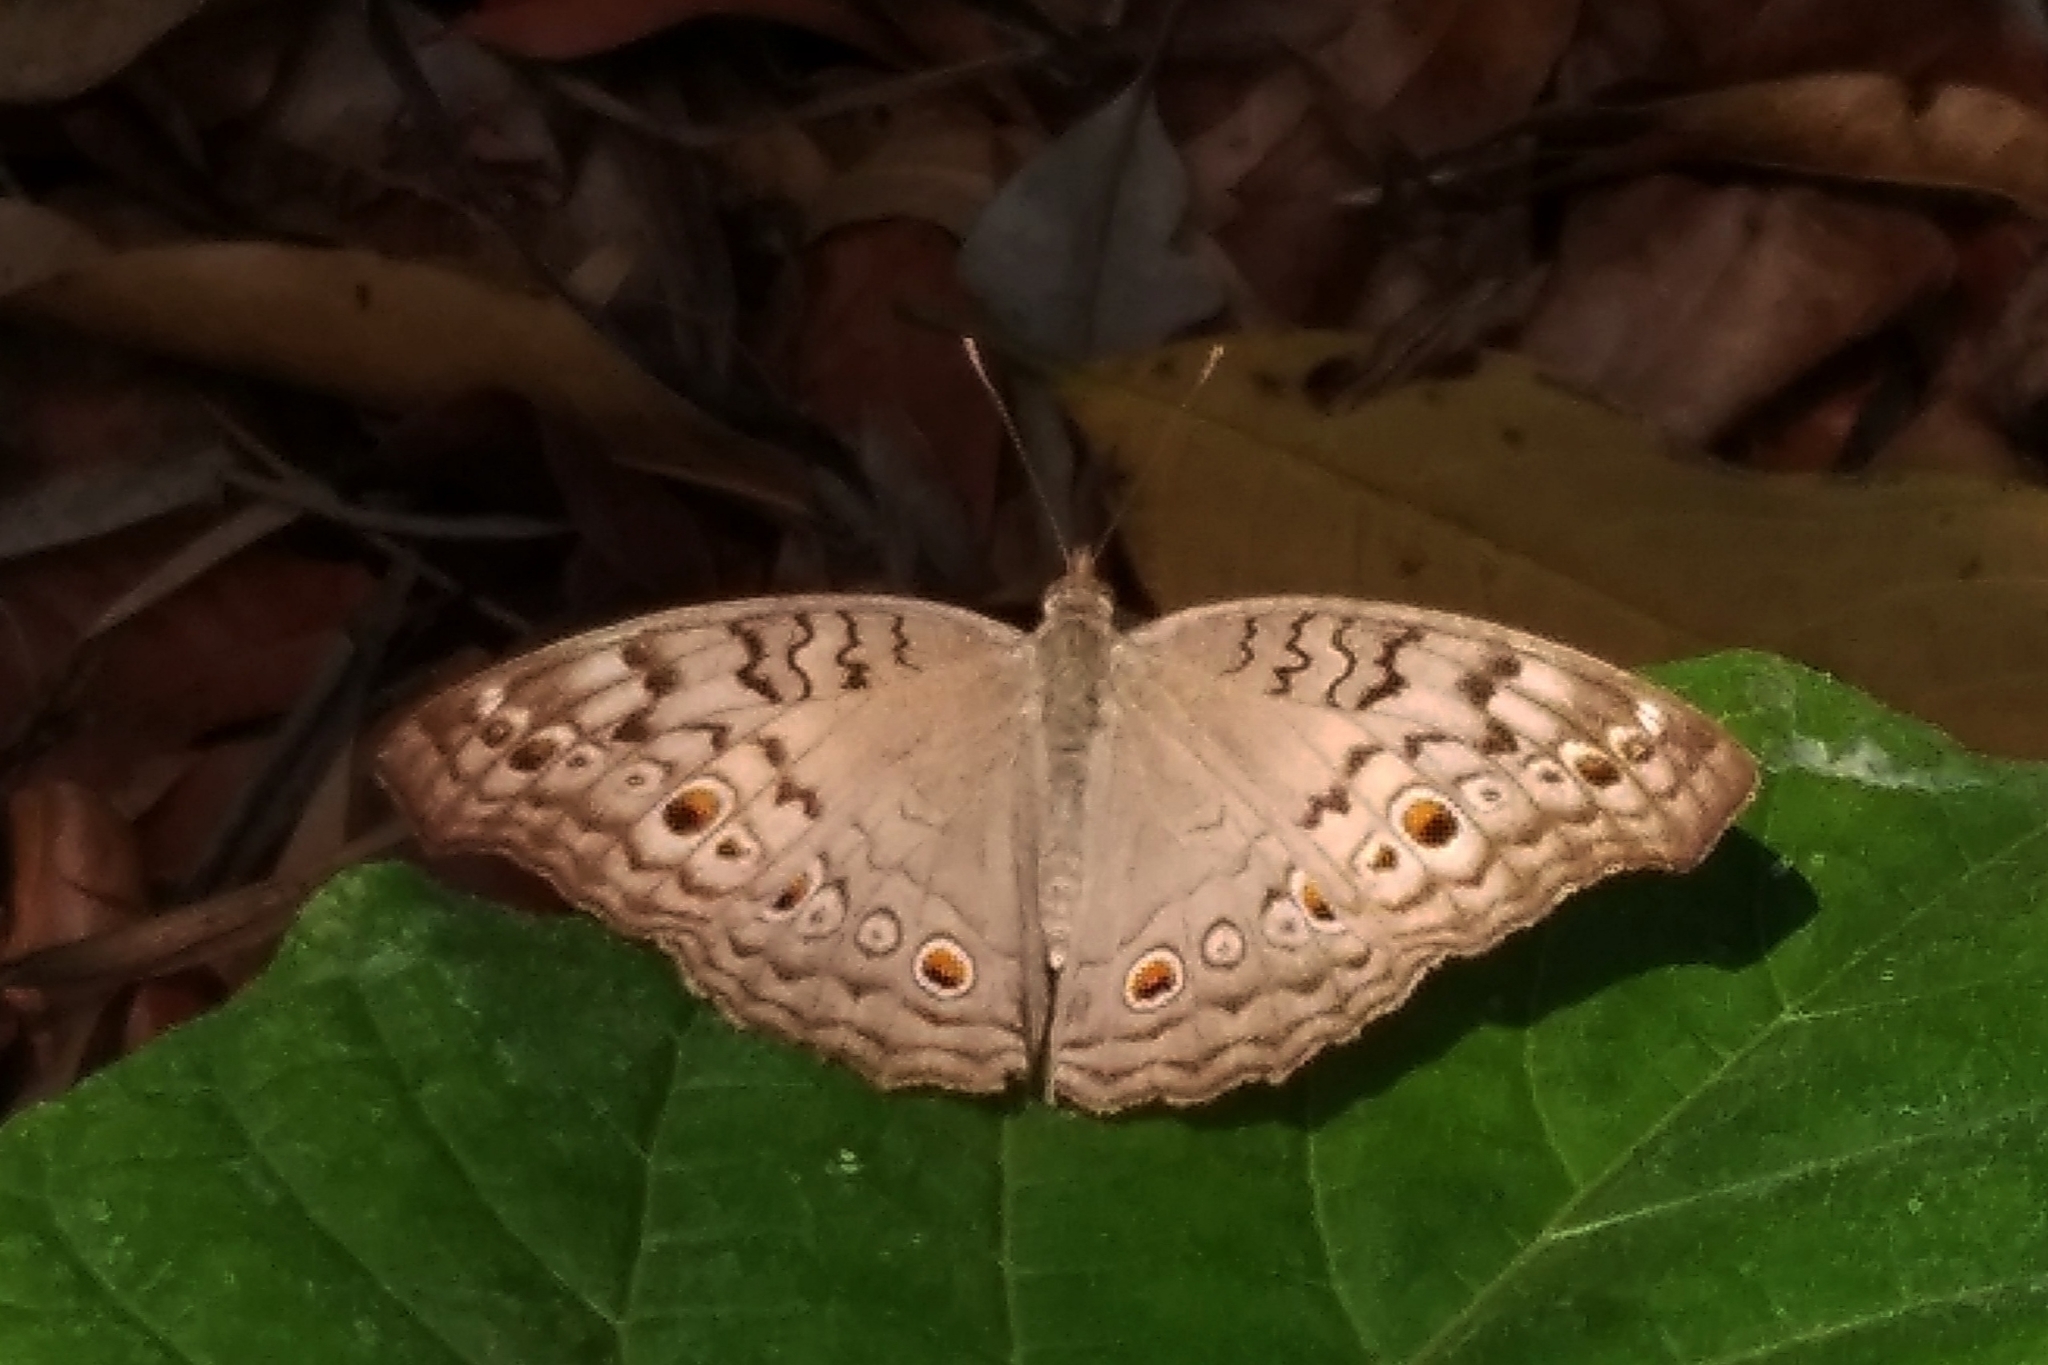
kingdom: Animalia
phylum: Arthropoda
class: Insecta
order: Lepidoptera
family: Nymphalidae
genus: Junonia
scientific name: Junonia atlites
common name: Grey pansy
